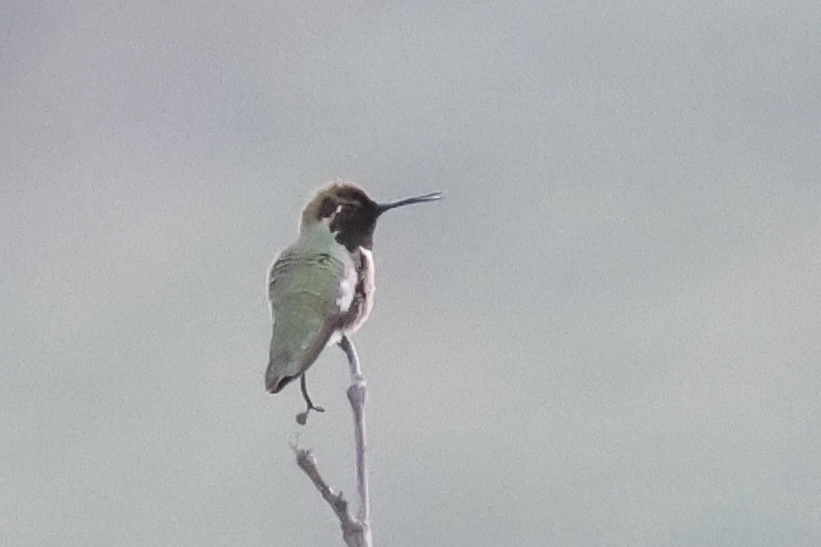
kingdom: Animalia
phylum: Chordata
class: Aves
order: Apodiformes
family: Trochilidae
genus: Calypte
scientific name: Calypte anna
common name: Anna's hummingbird
